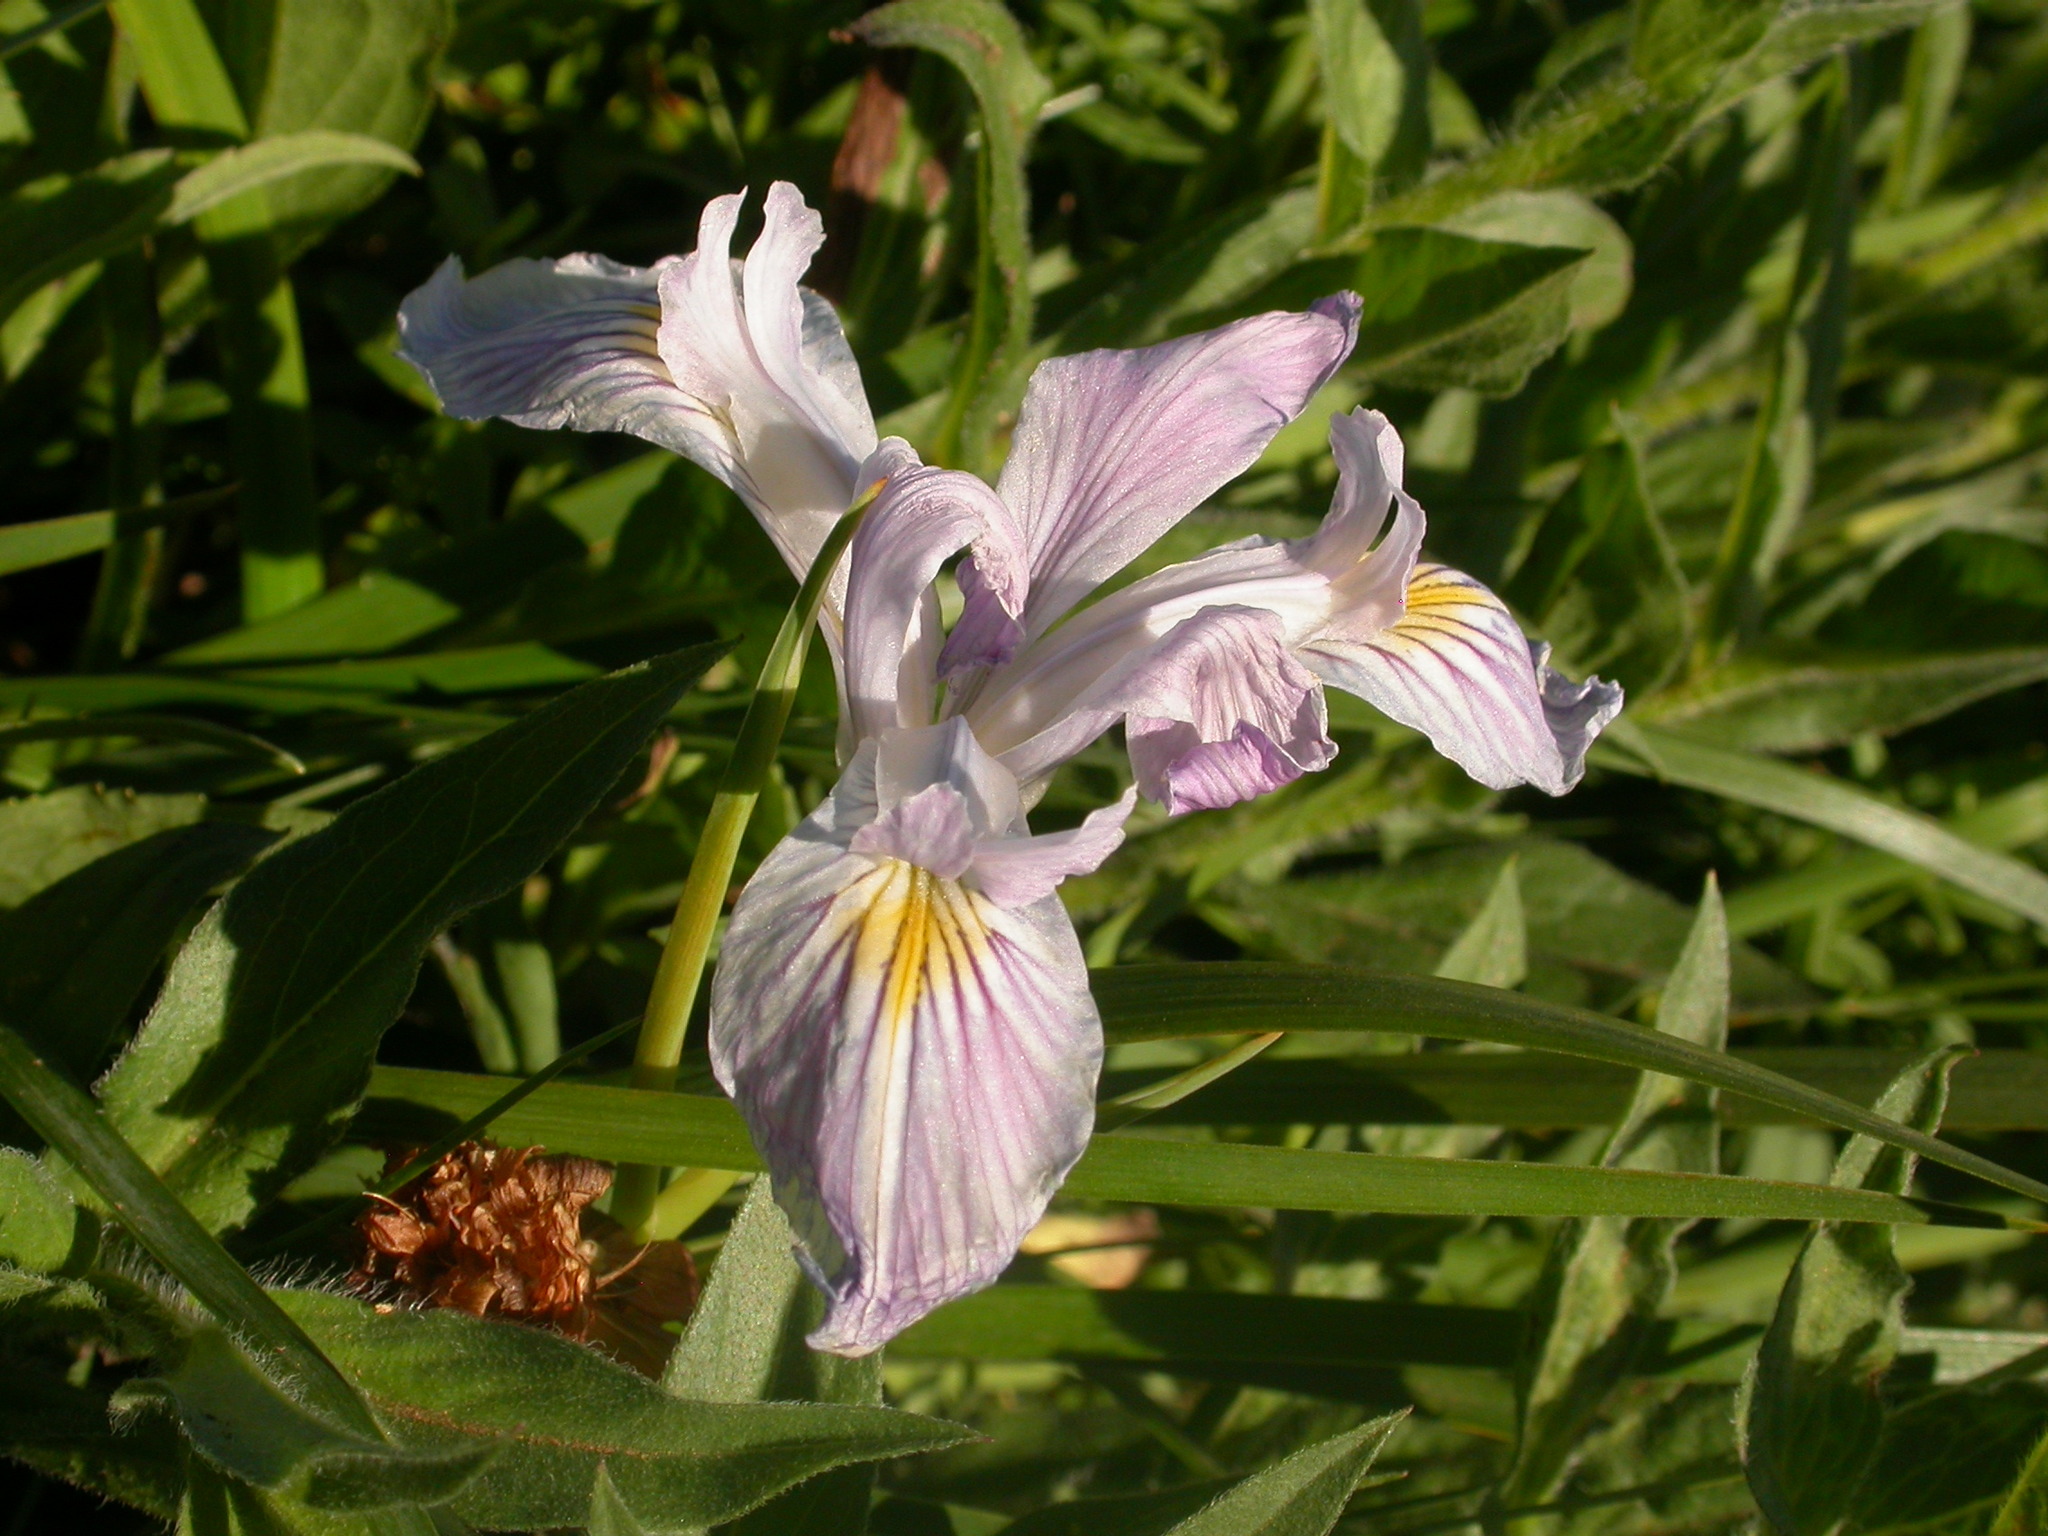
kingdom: Plantae
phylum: Tracheophyta
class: Liliopsida
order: Asparagales
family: Iridaceae
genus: Iris
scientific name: Iris tenax
